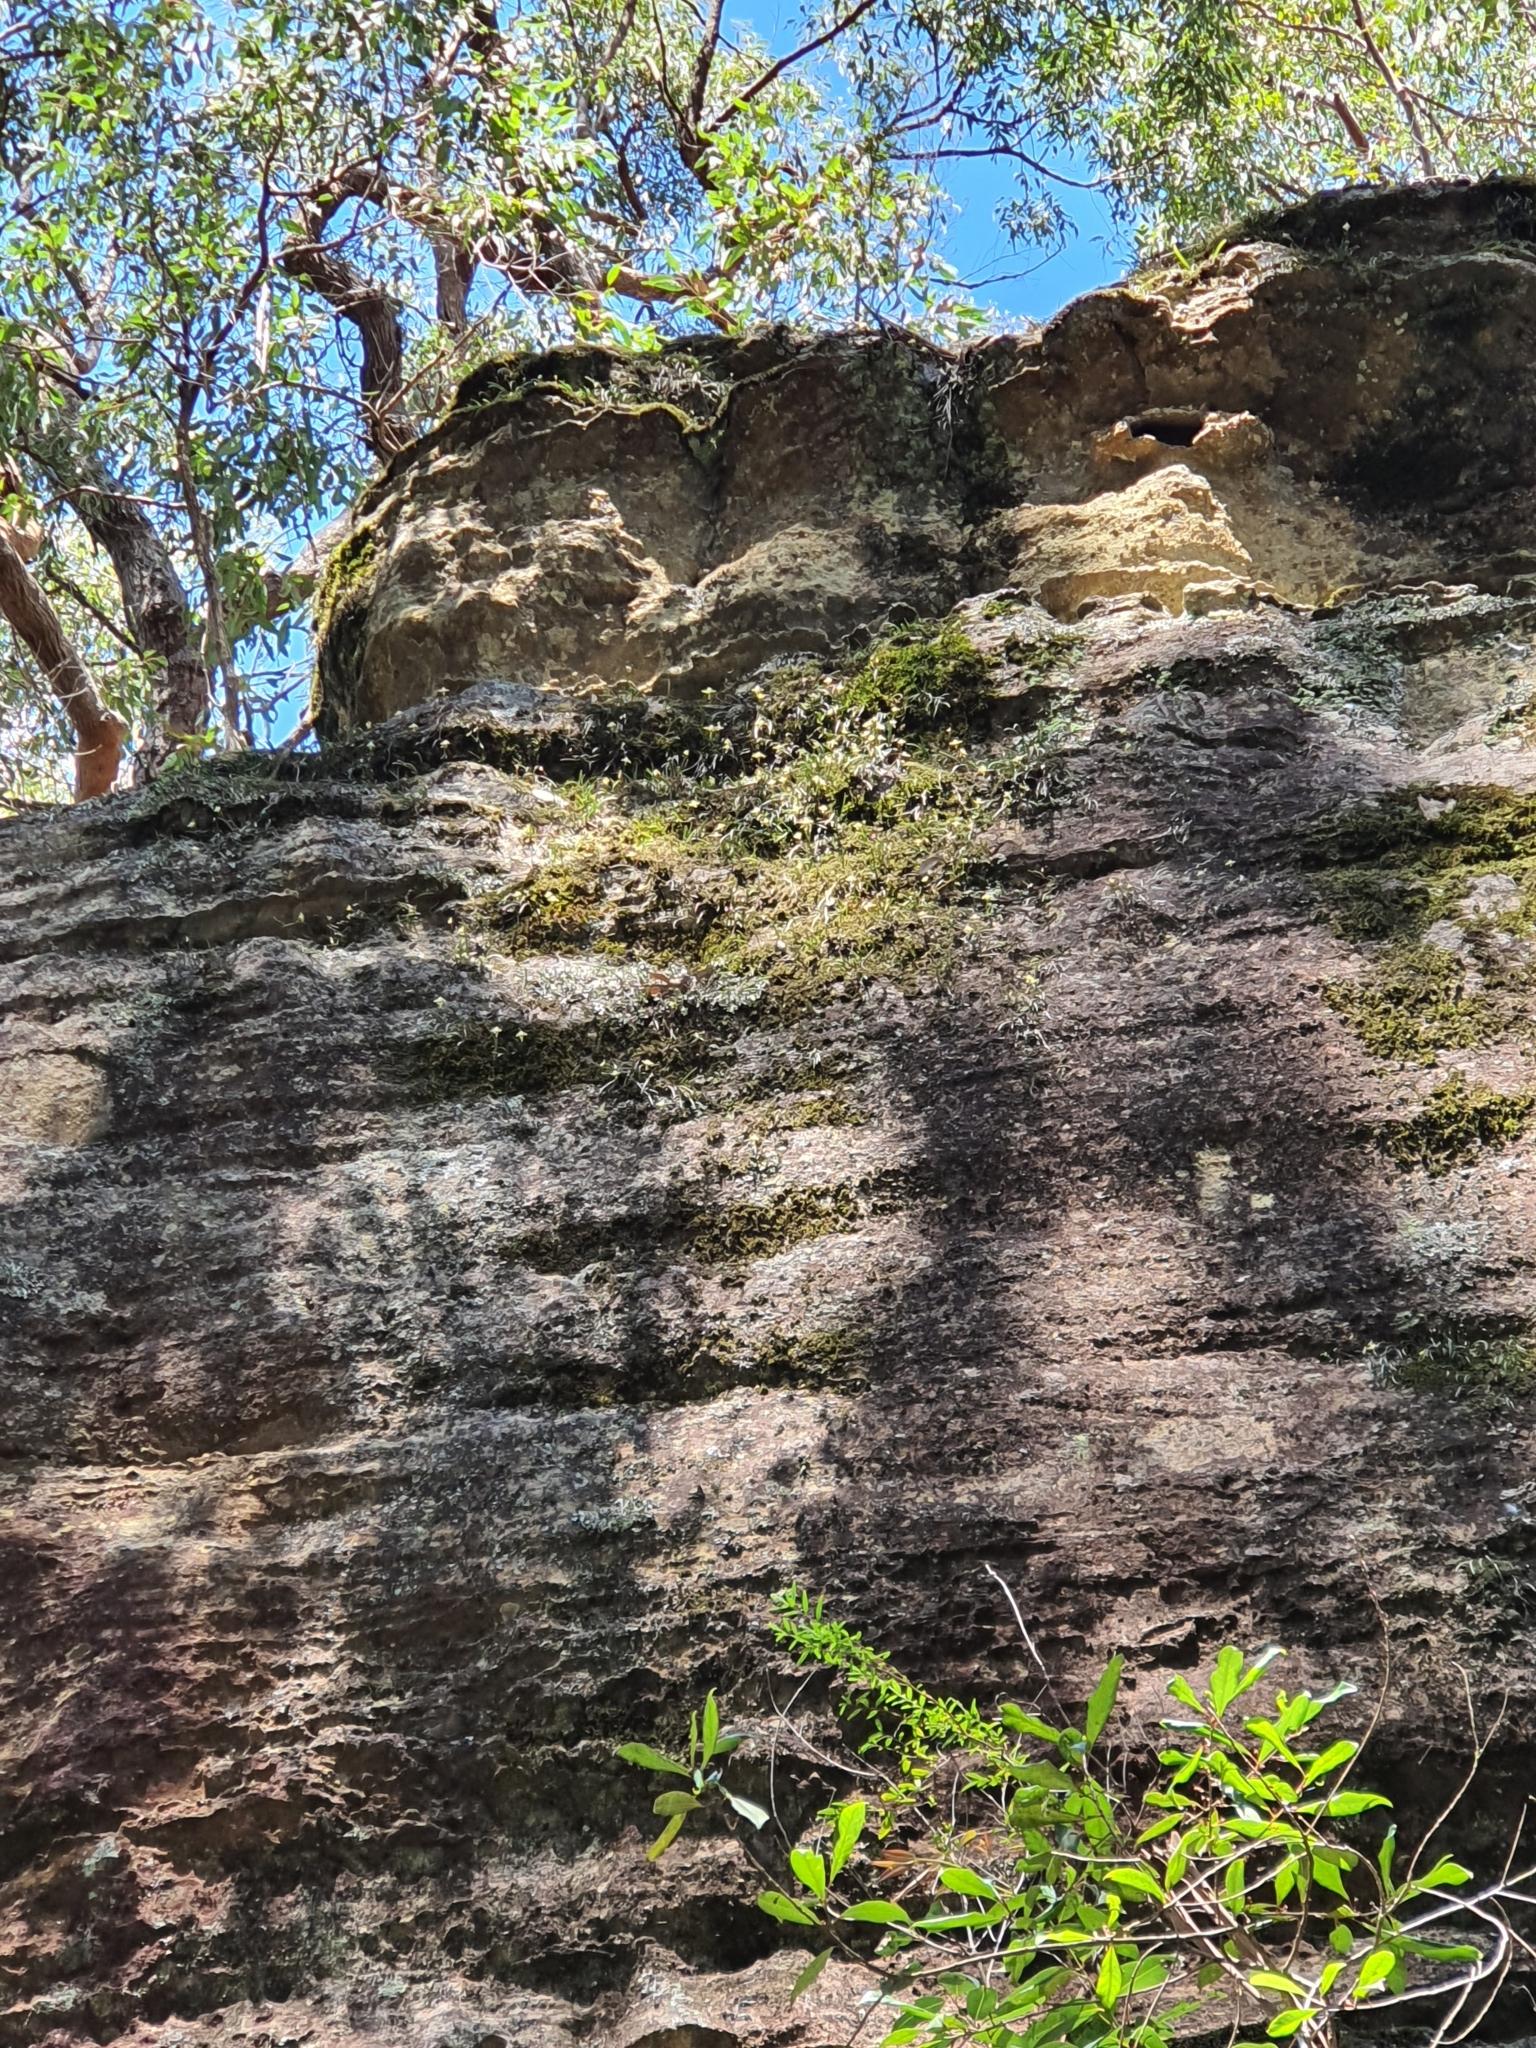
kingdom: Plantae
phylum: Tracheophyta
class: Liliopsida
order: Asparagales
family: Orchidaceae
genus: Dendrobium
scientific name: Dendrobium striolatum
